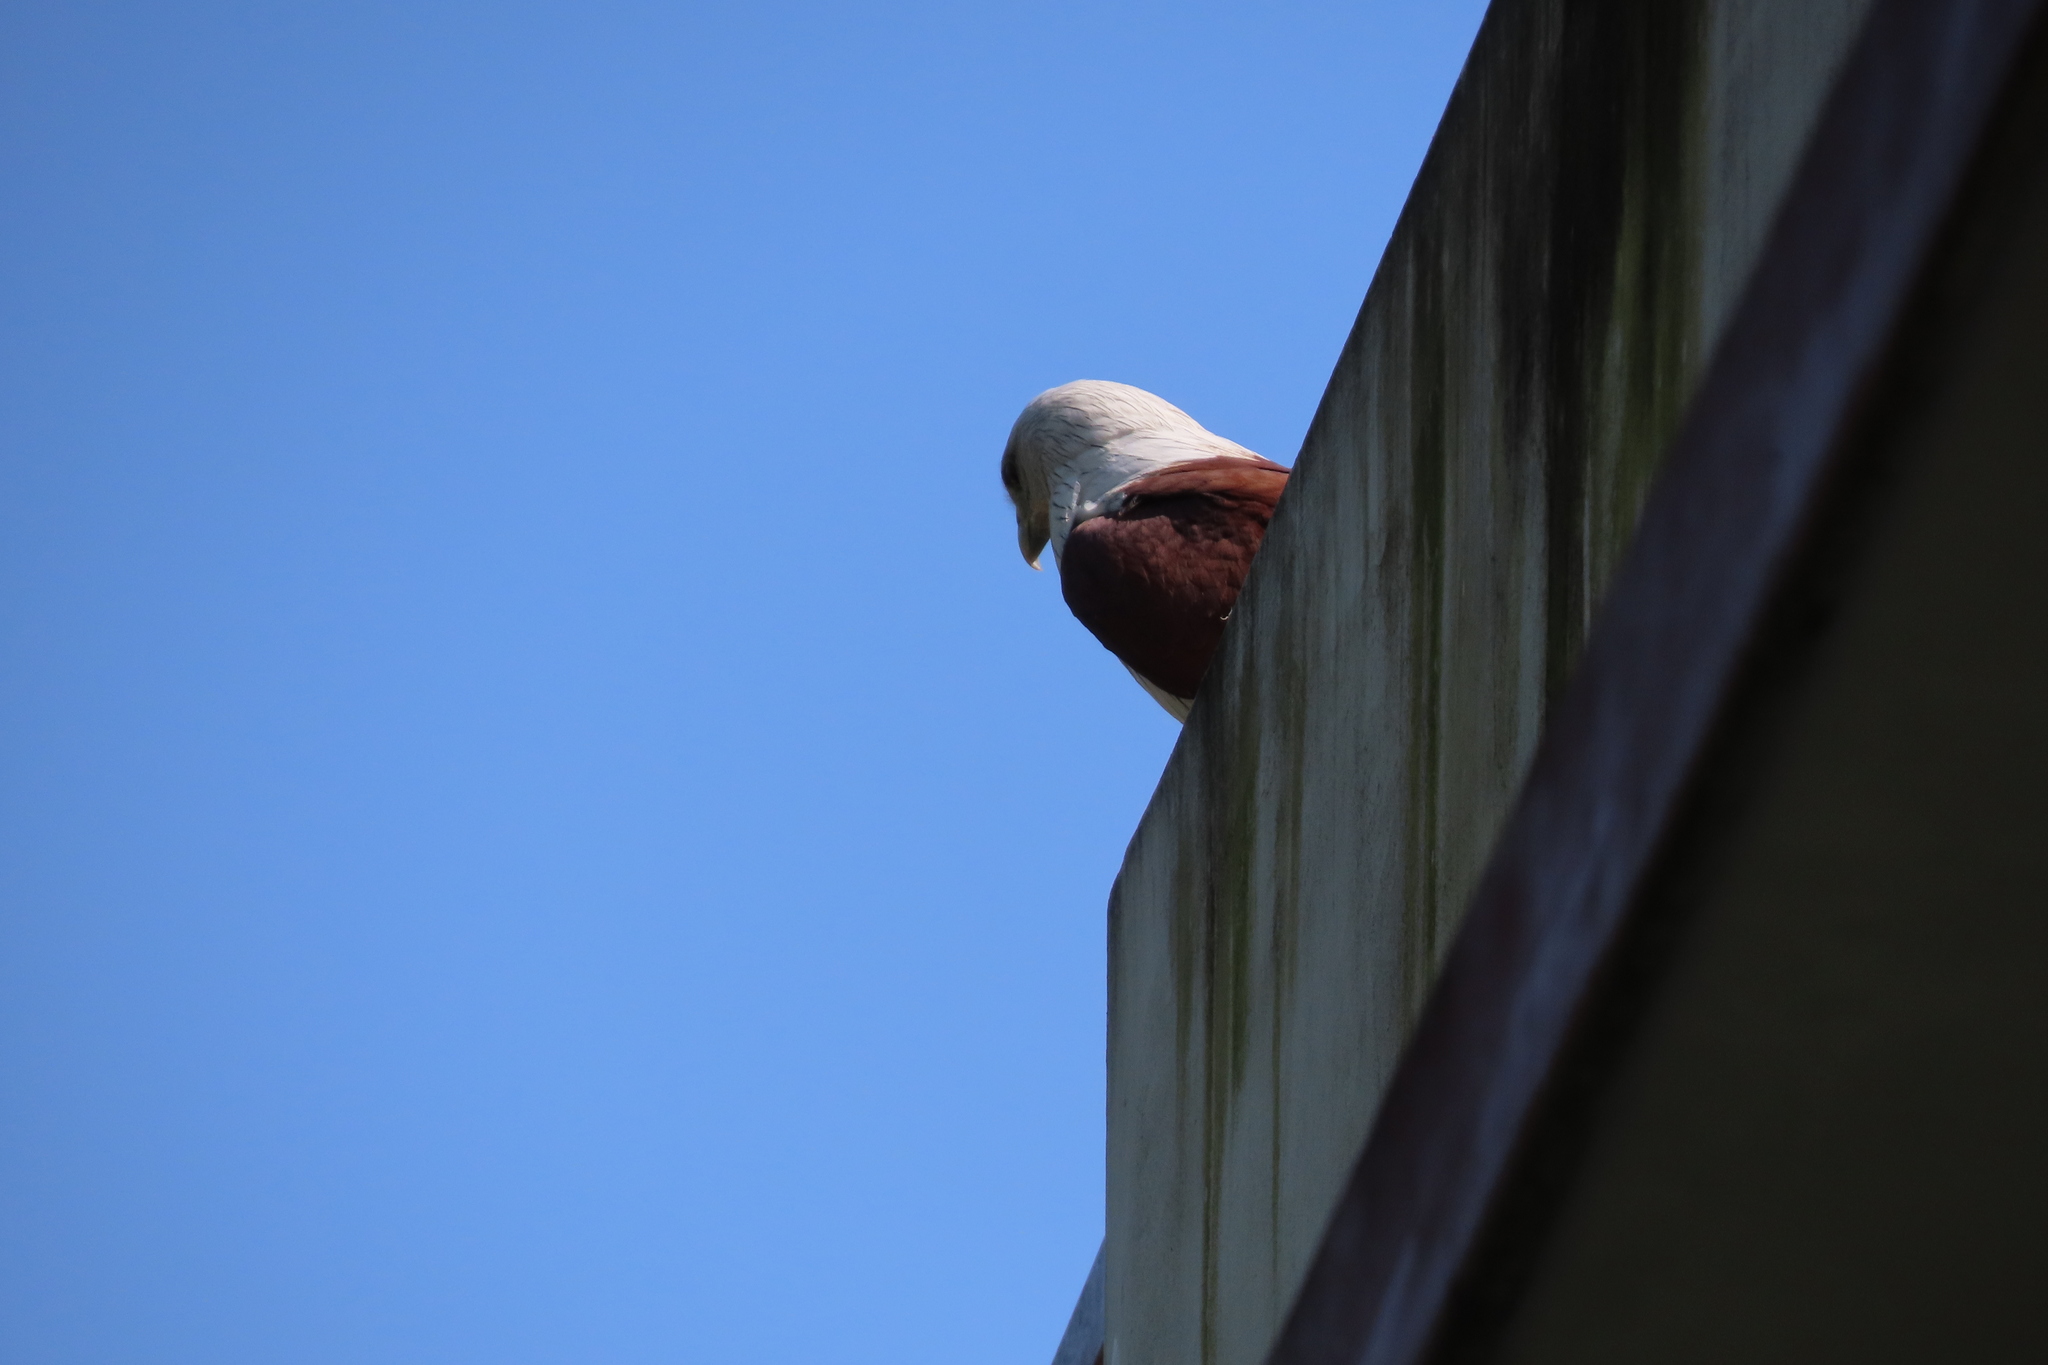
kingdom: Animalia
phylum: Chordata
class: Aves
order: Accipitriformes
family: Accipitridae
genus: Haliastur
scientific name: Haliastur indus
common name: Brahminy kite
